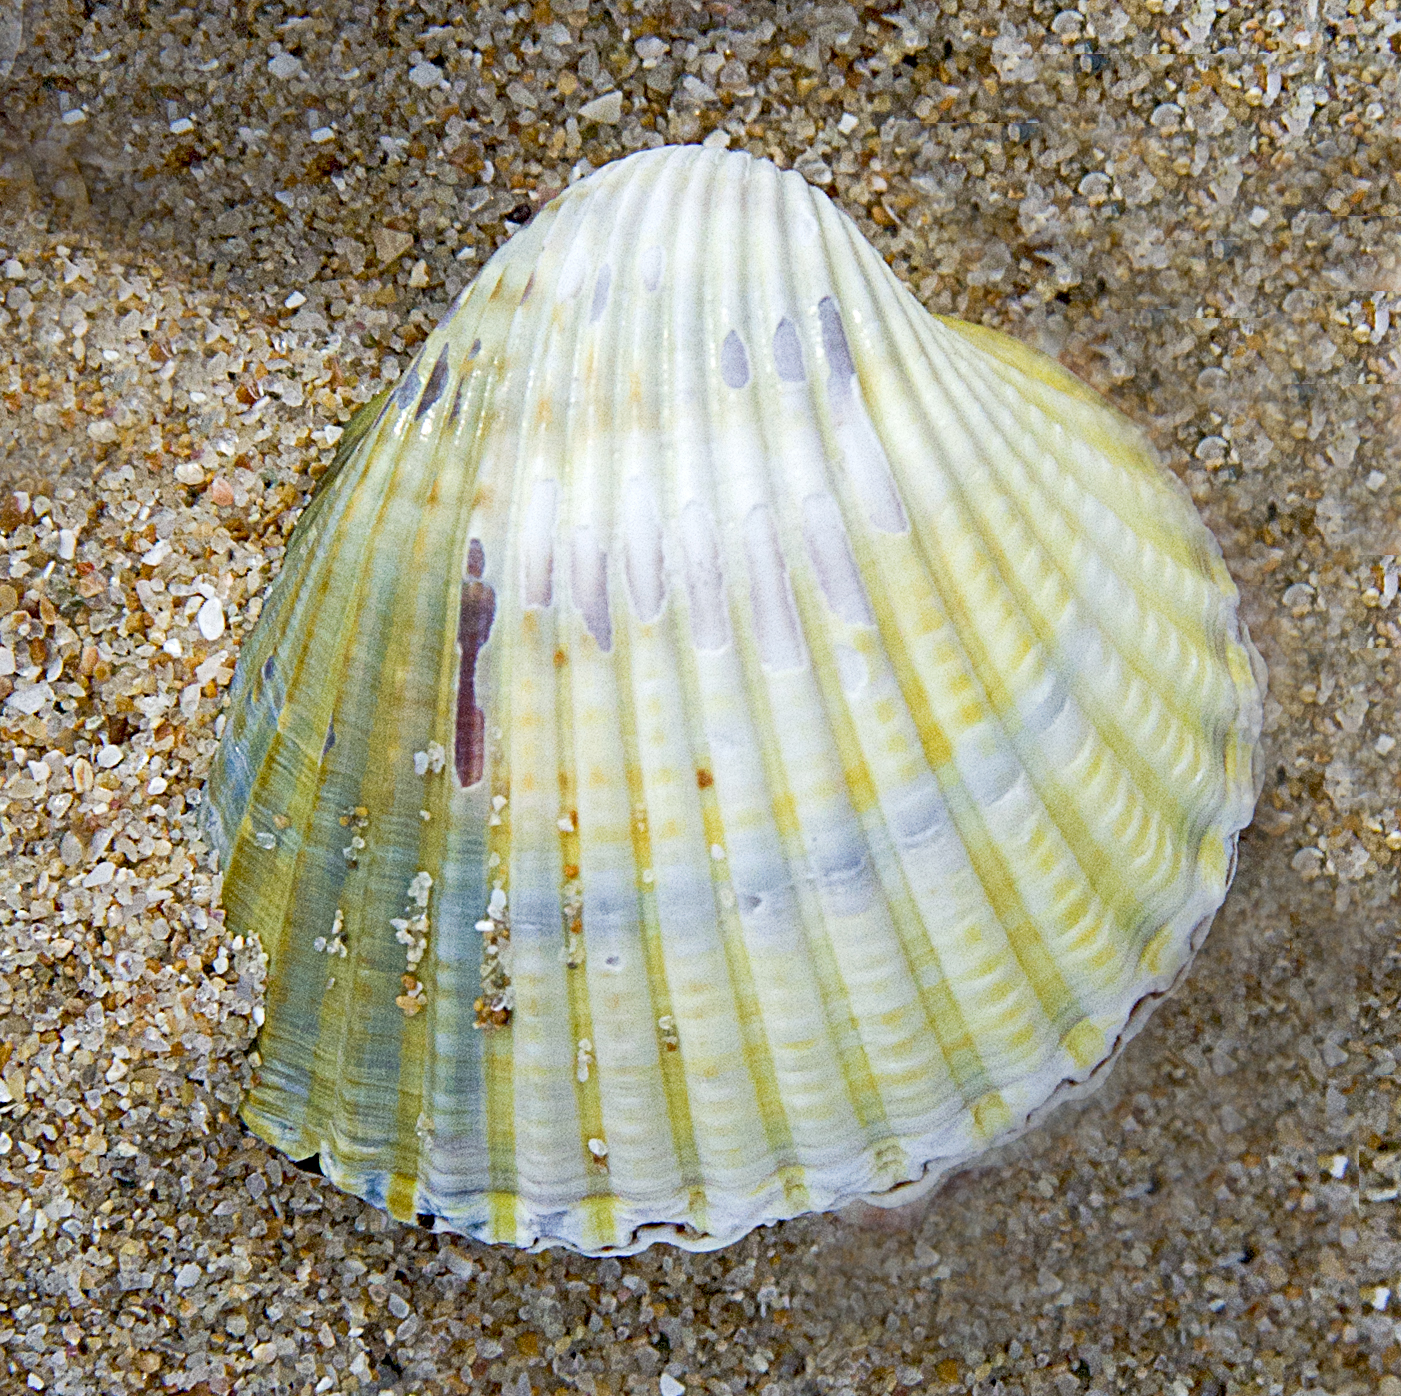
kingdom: Animalia
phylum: Mollusca
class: Bivalvia
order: Cardiida
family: Cardiidae
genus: Cerastoderma
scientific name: Cerastoderma glaucum
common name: Lagoon cockle
